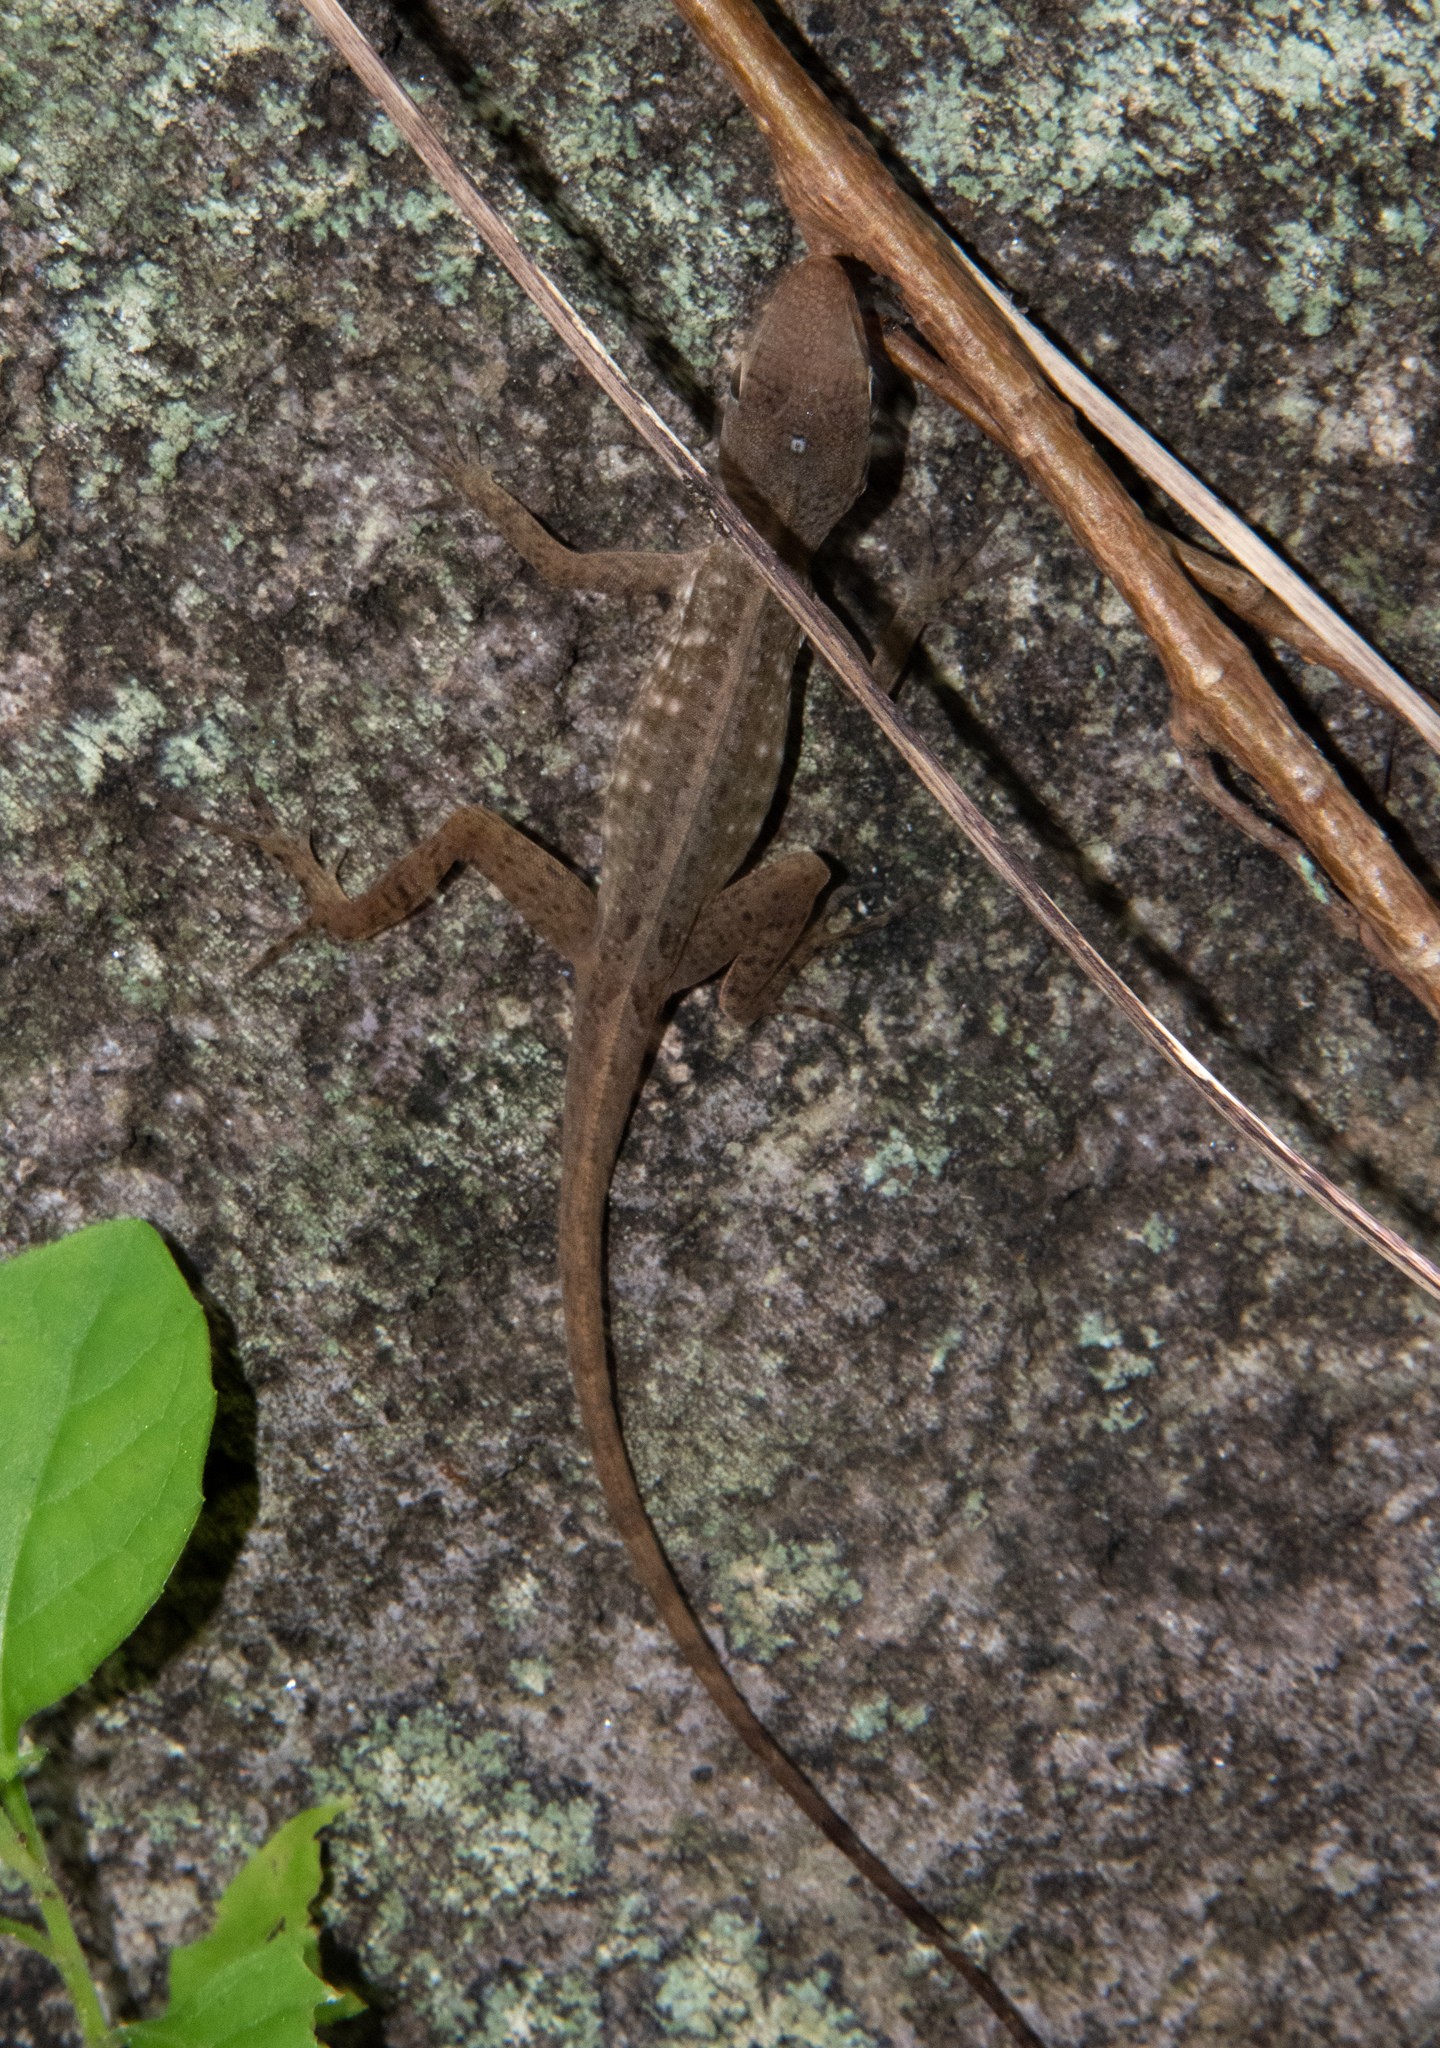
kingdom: Animalia
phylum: Chordata
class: Squamata
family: Dactyloidae
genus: Anolis
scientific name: Anolis oculatus
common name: Dominica anole
